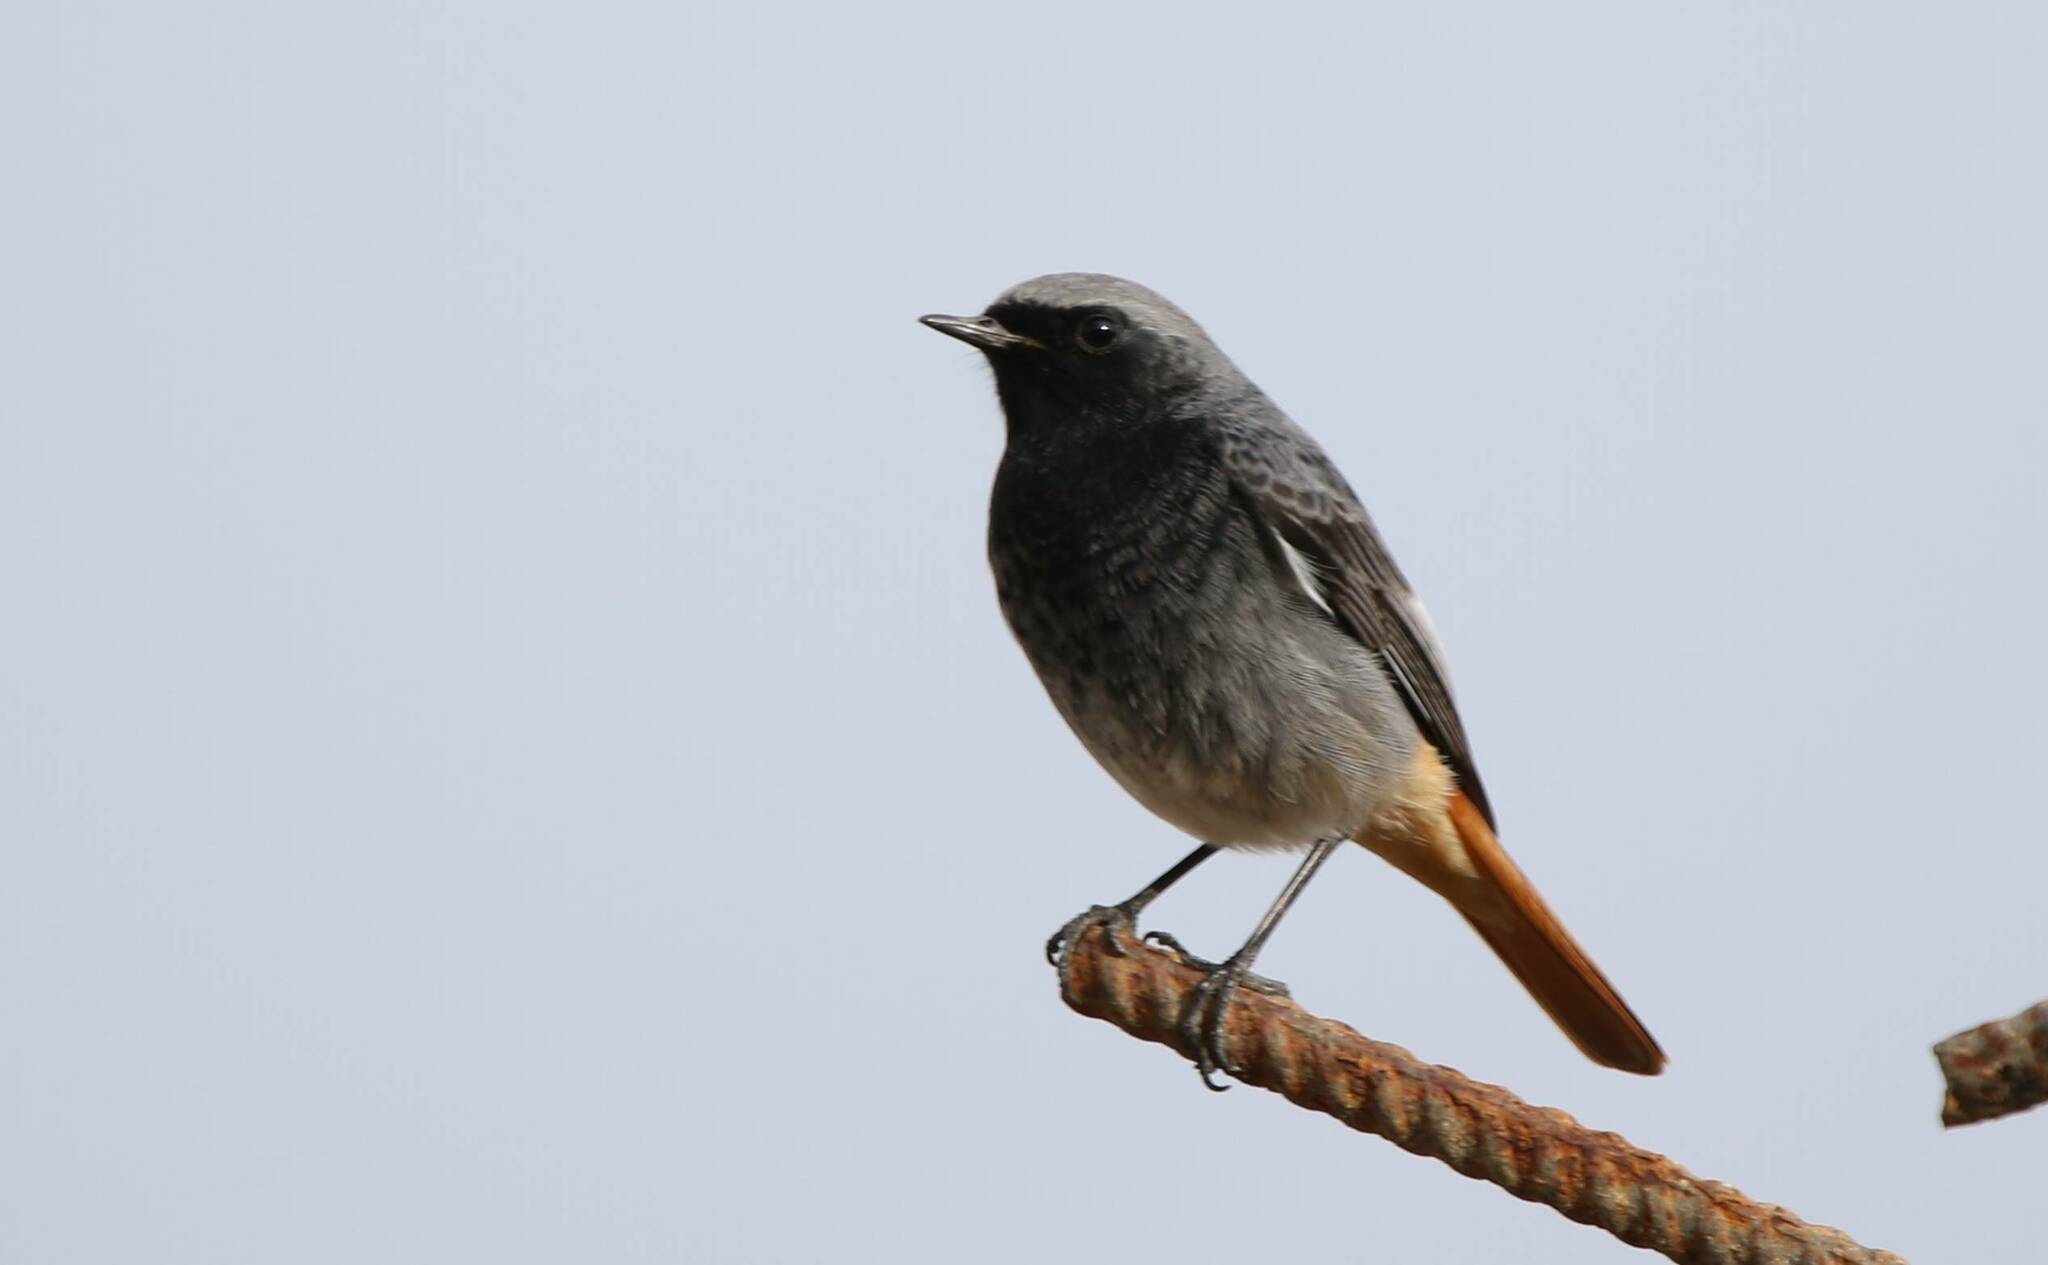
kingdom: Animalia
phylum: Chordata
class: Aves
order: Passeriformes
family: Muscicapidae
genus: Phoenicurus
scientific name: Phoenicurus ochruros
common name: Black redstart
